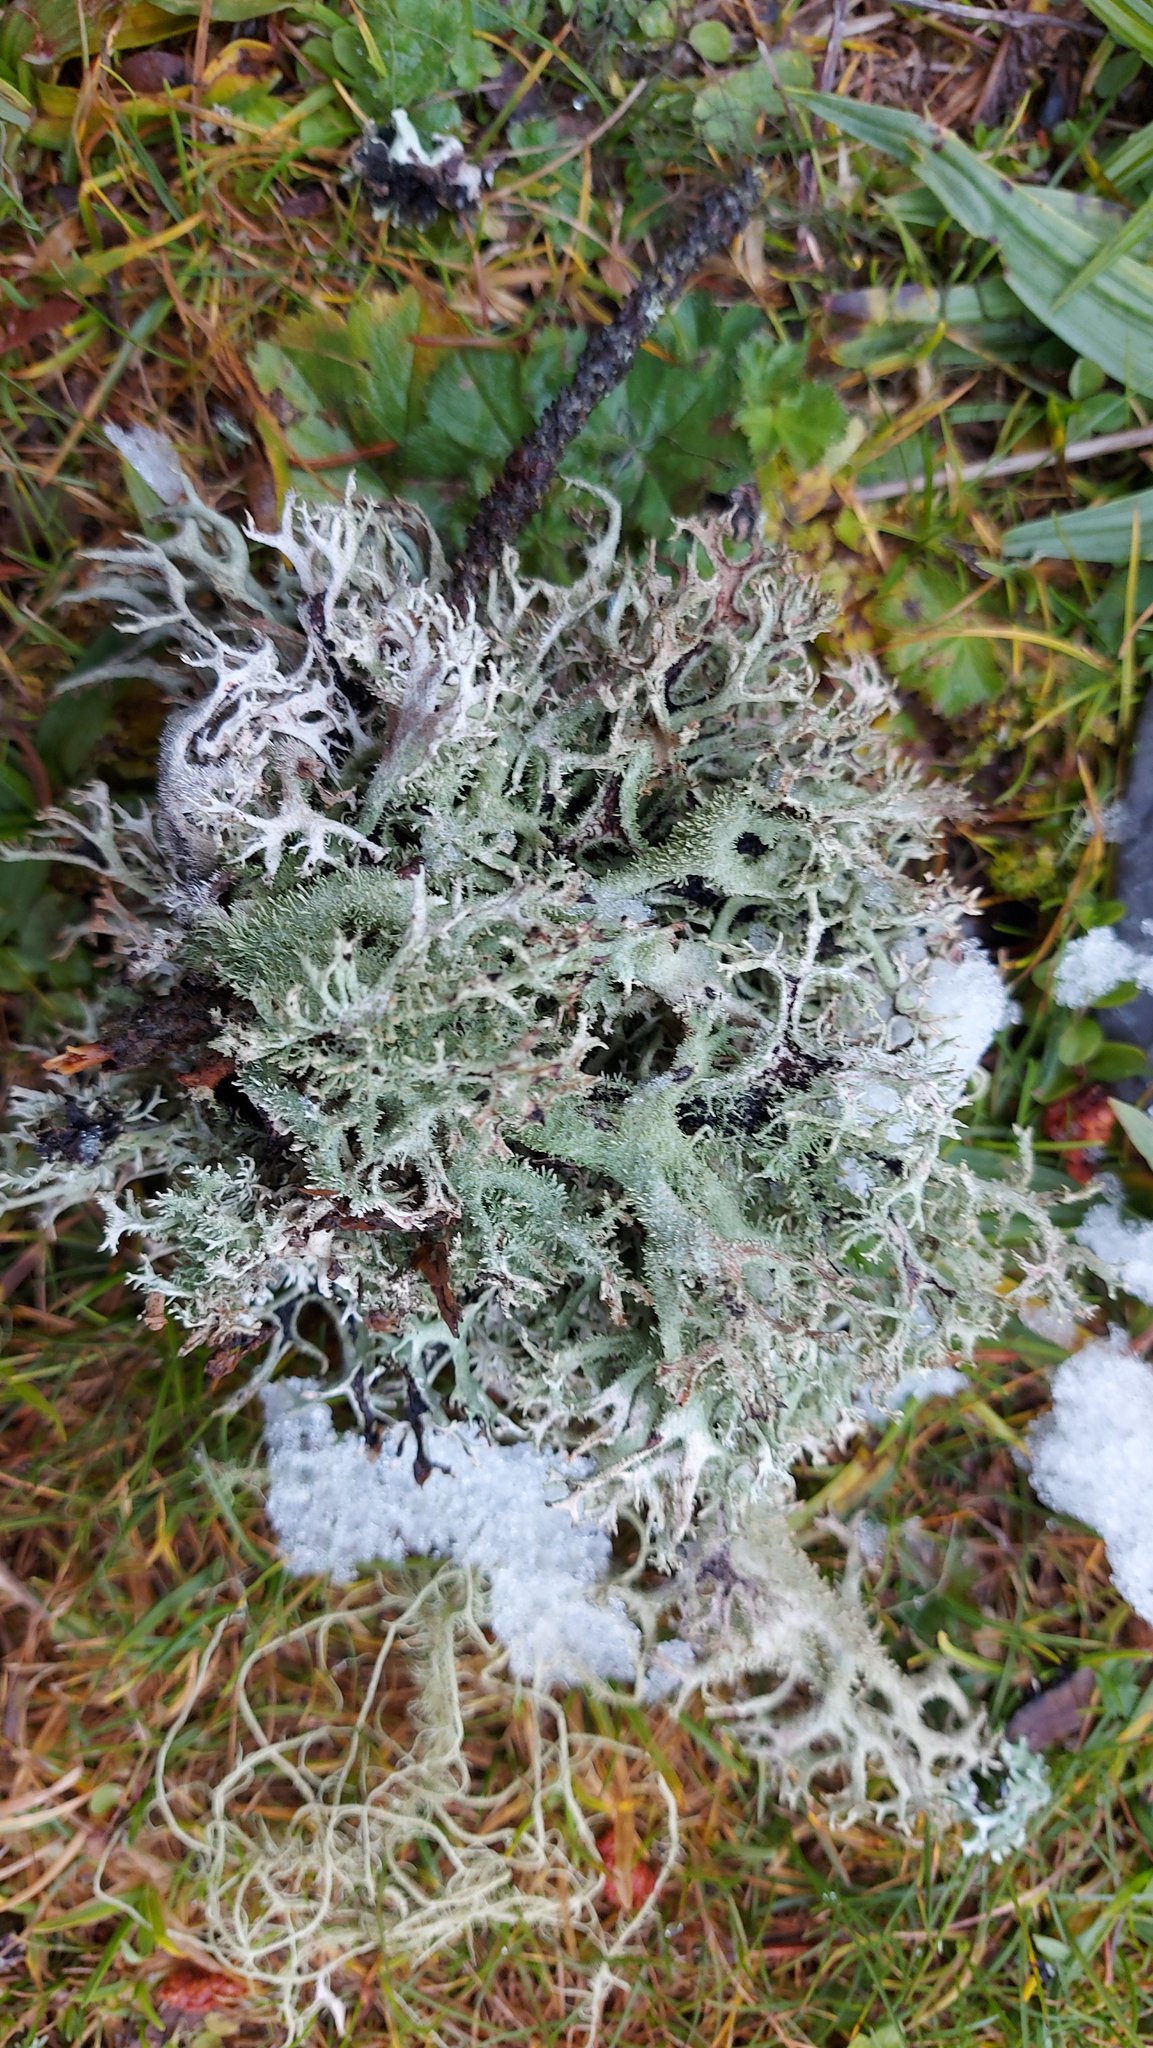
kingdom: Fungi
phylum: Ascomycota
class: Lecanoromycetes
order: Lecanorales
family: Parmeliaceae
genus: Pseudevernia
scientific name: Pseudevernia furfuracea
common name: Tree moss
